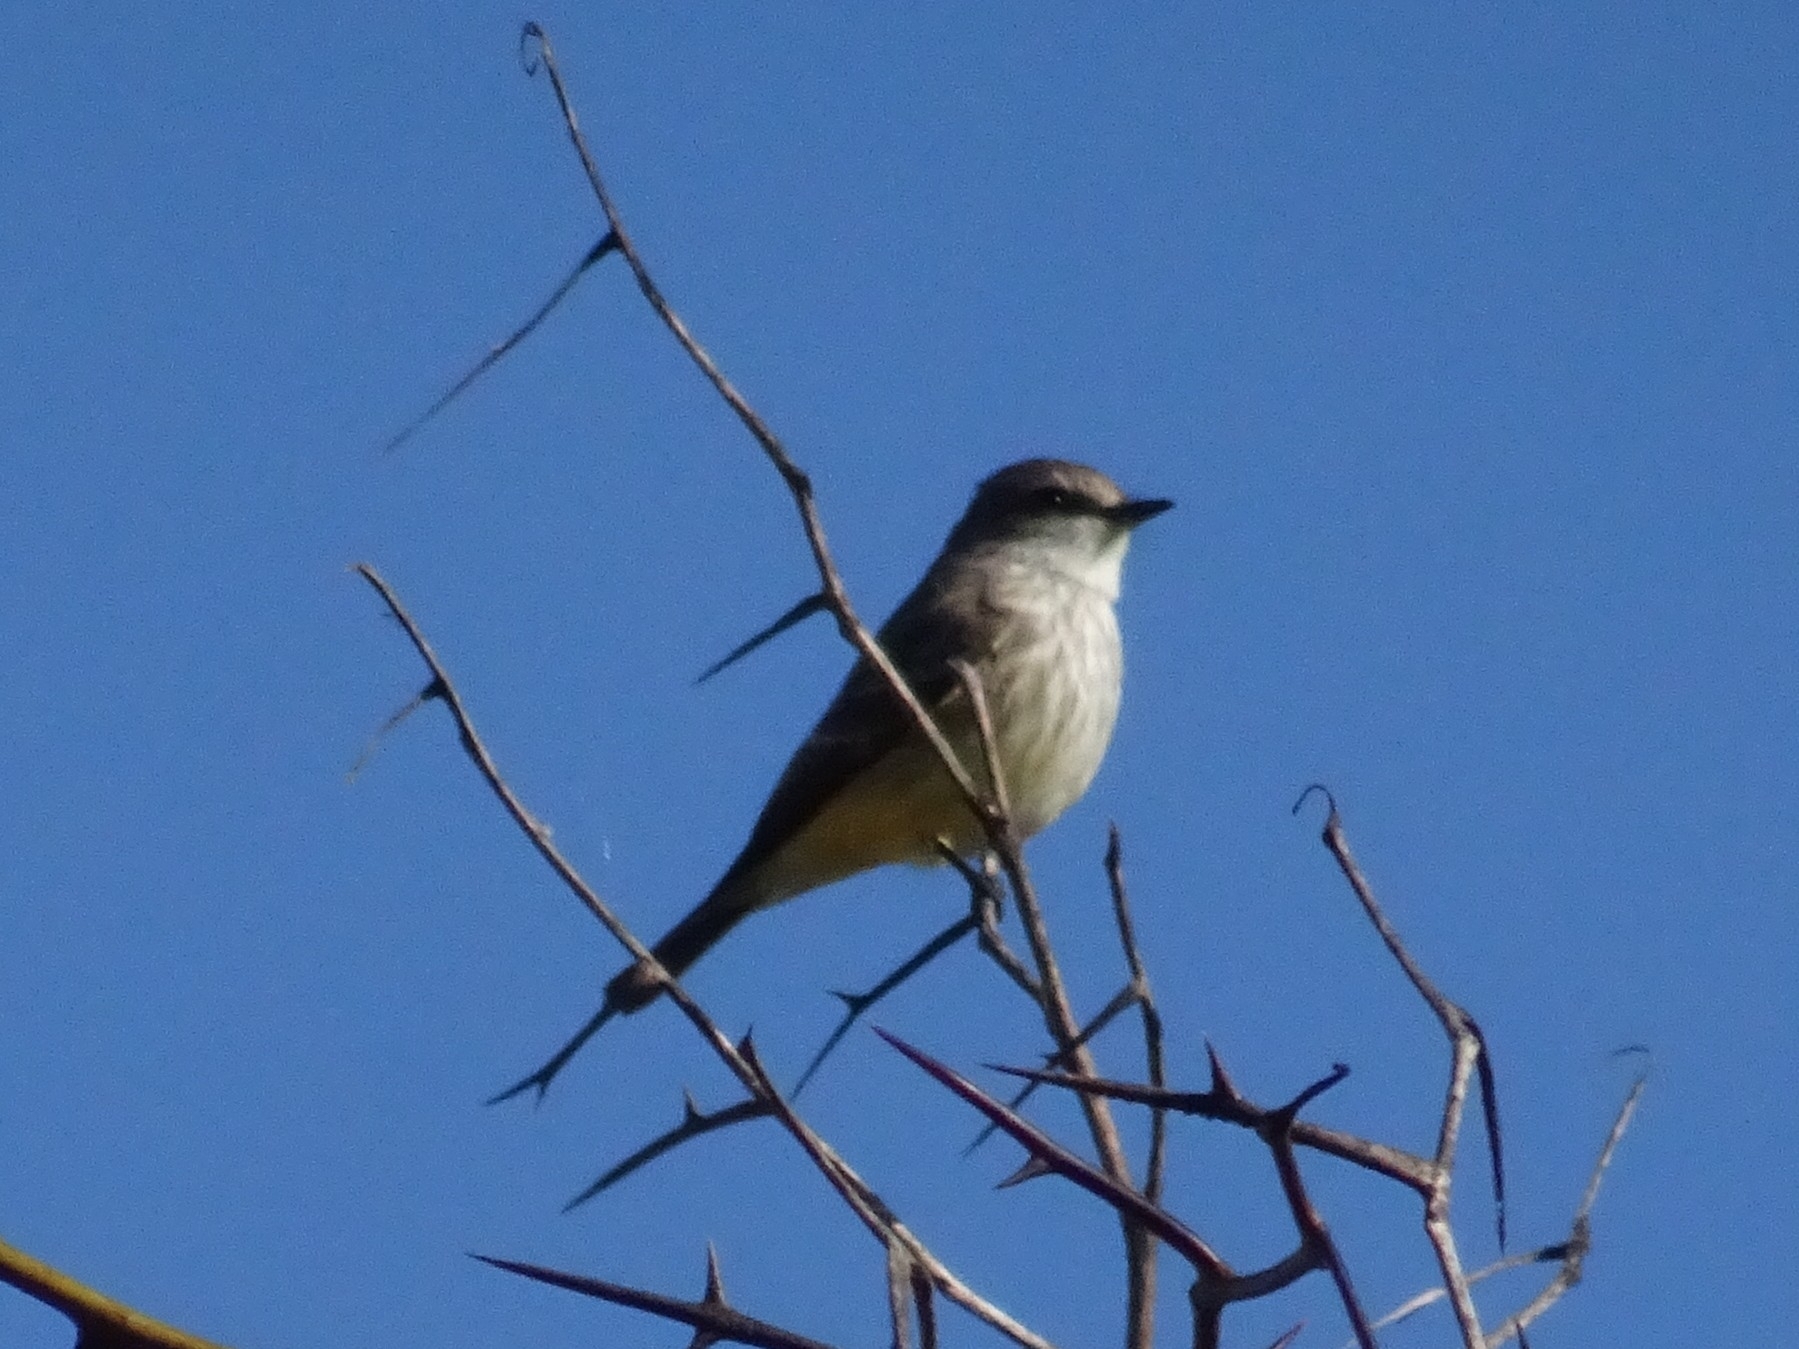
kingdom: Animalia
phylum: Chordata
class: Aves
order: Passeriformes
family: Tyrannidae
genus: Pyrocephalus
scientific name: Pyrocephalus rubinus
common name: Vermilion flycatcher
